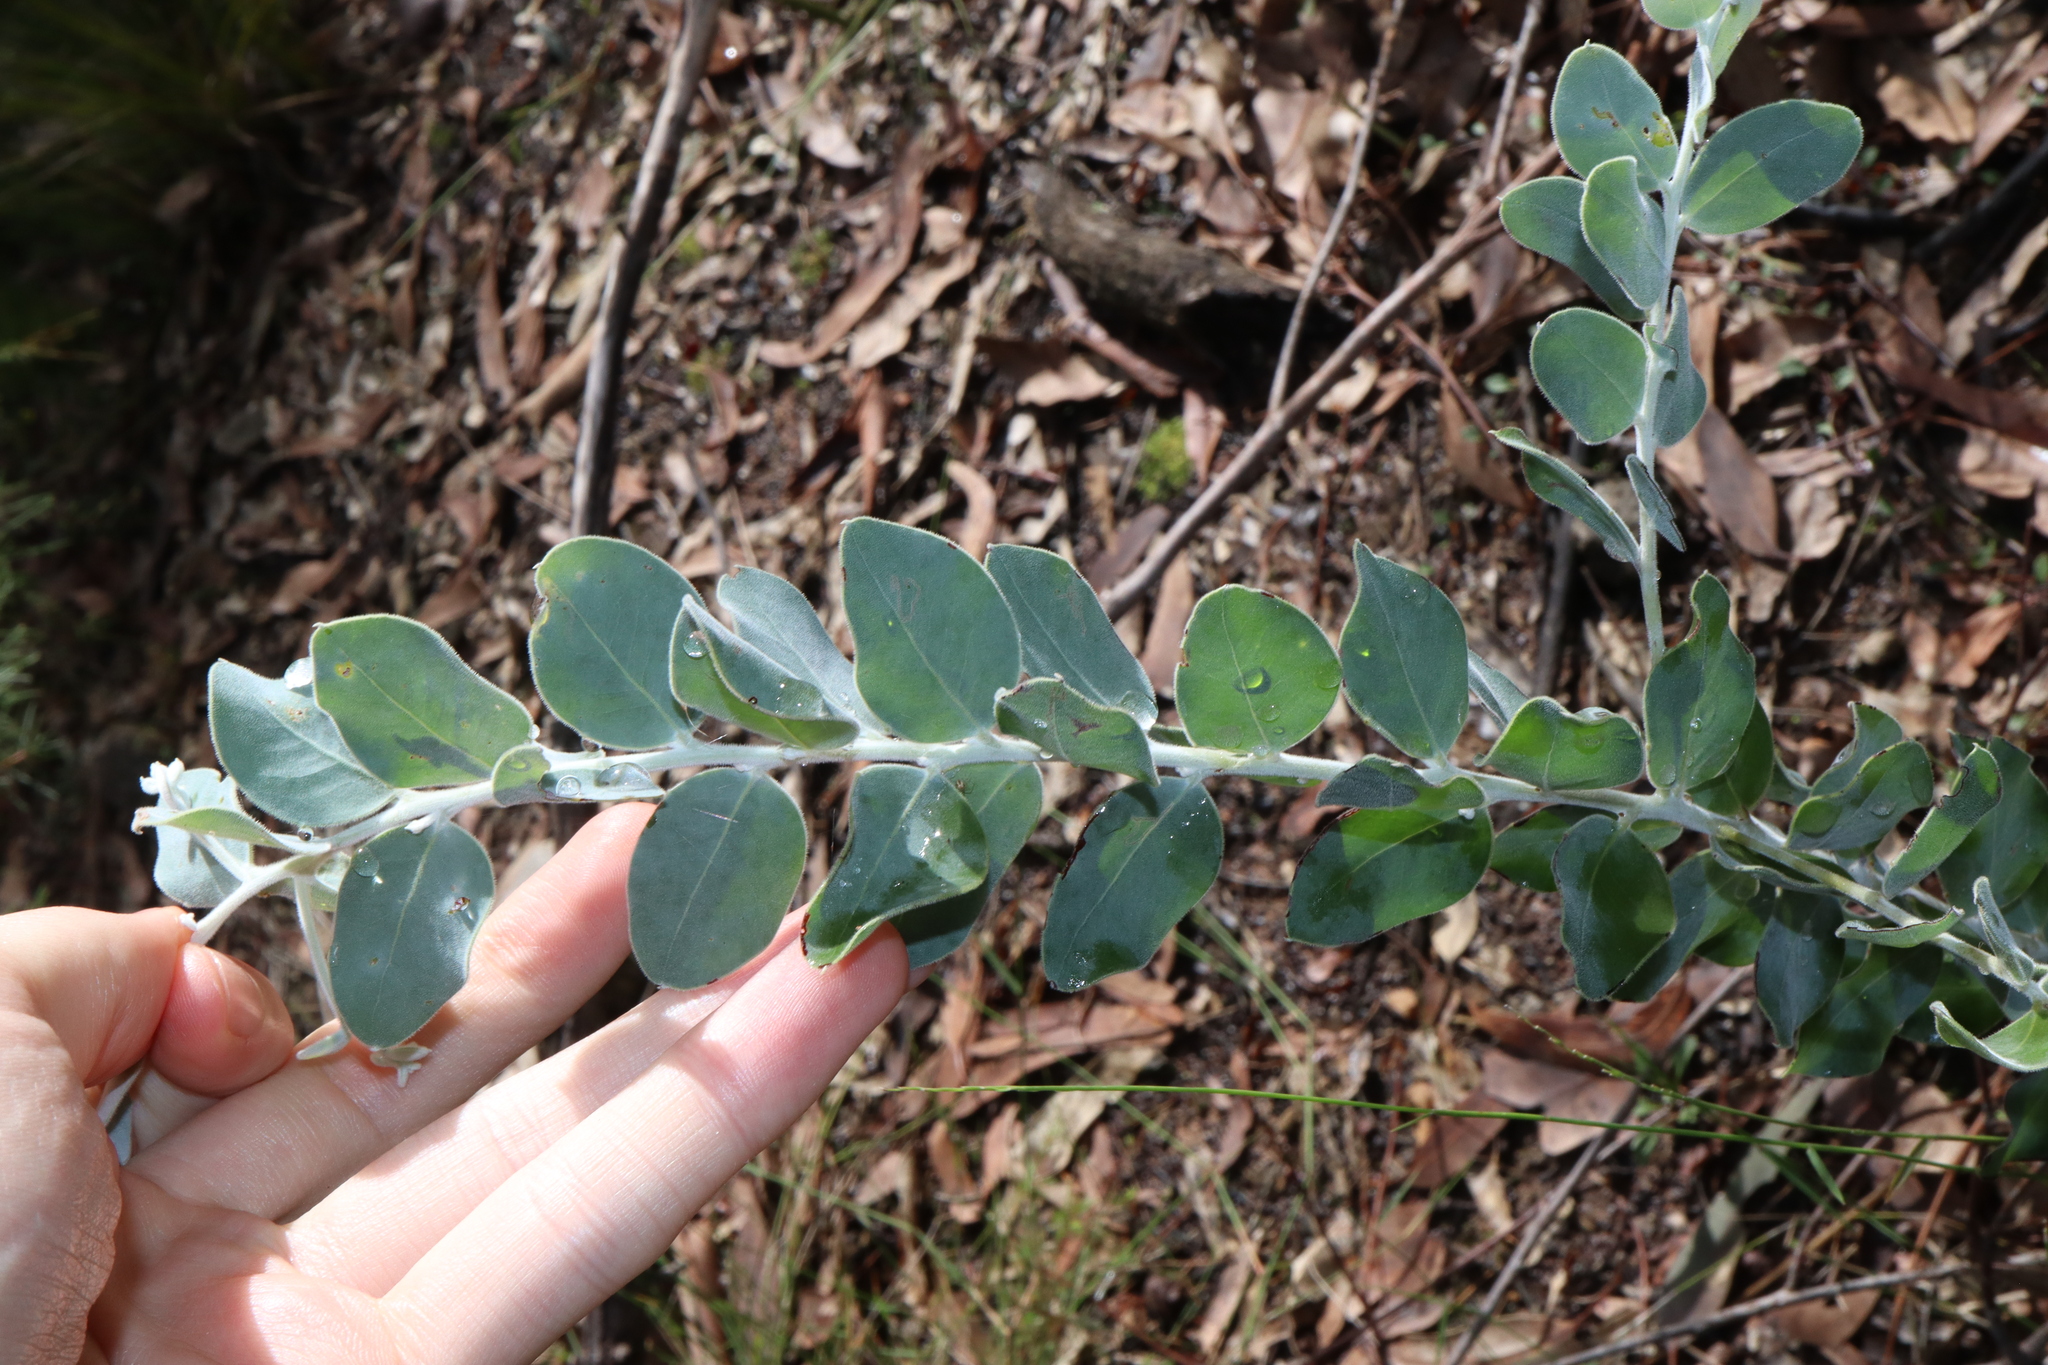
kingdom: Plantae
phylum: Tracheophyta
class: Magnoliopsida
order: Fabales
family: Fabaceae
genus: Acacia
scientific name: Acacia podalyriifolia
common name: Pearl wattle
